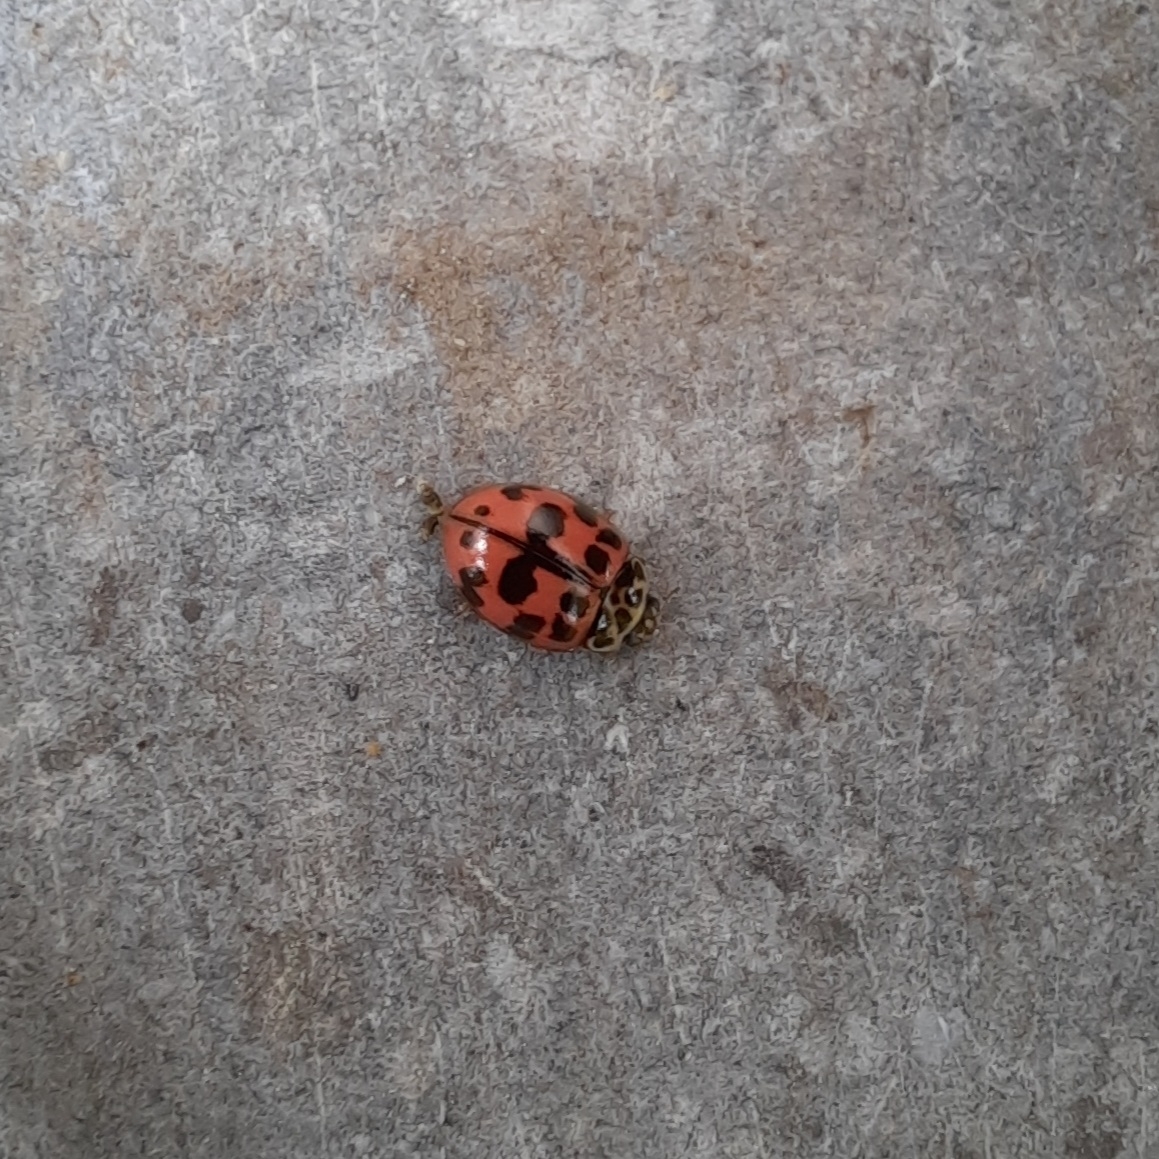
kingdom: Animalia
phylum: Arthropoda
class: Insecta
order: Coleoptera
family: Coccinellidae
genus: Oenopia
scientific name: Oenopia conglobata
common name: Ladybird beetle
